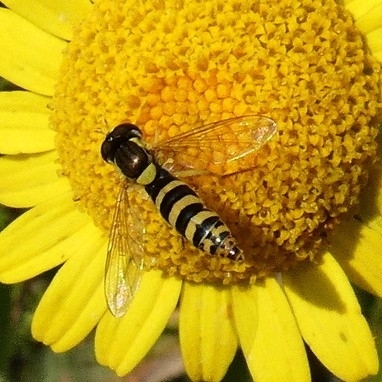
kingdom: Animalia
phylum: Arthropoda
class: Insecta
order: Diptera
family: Syrphidae
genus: Sphaerophoria
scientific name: Sphaerophoria
